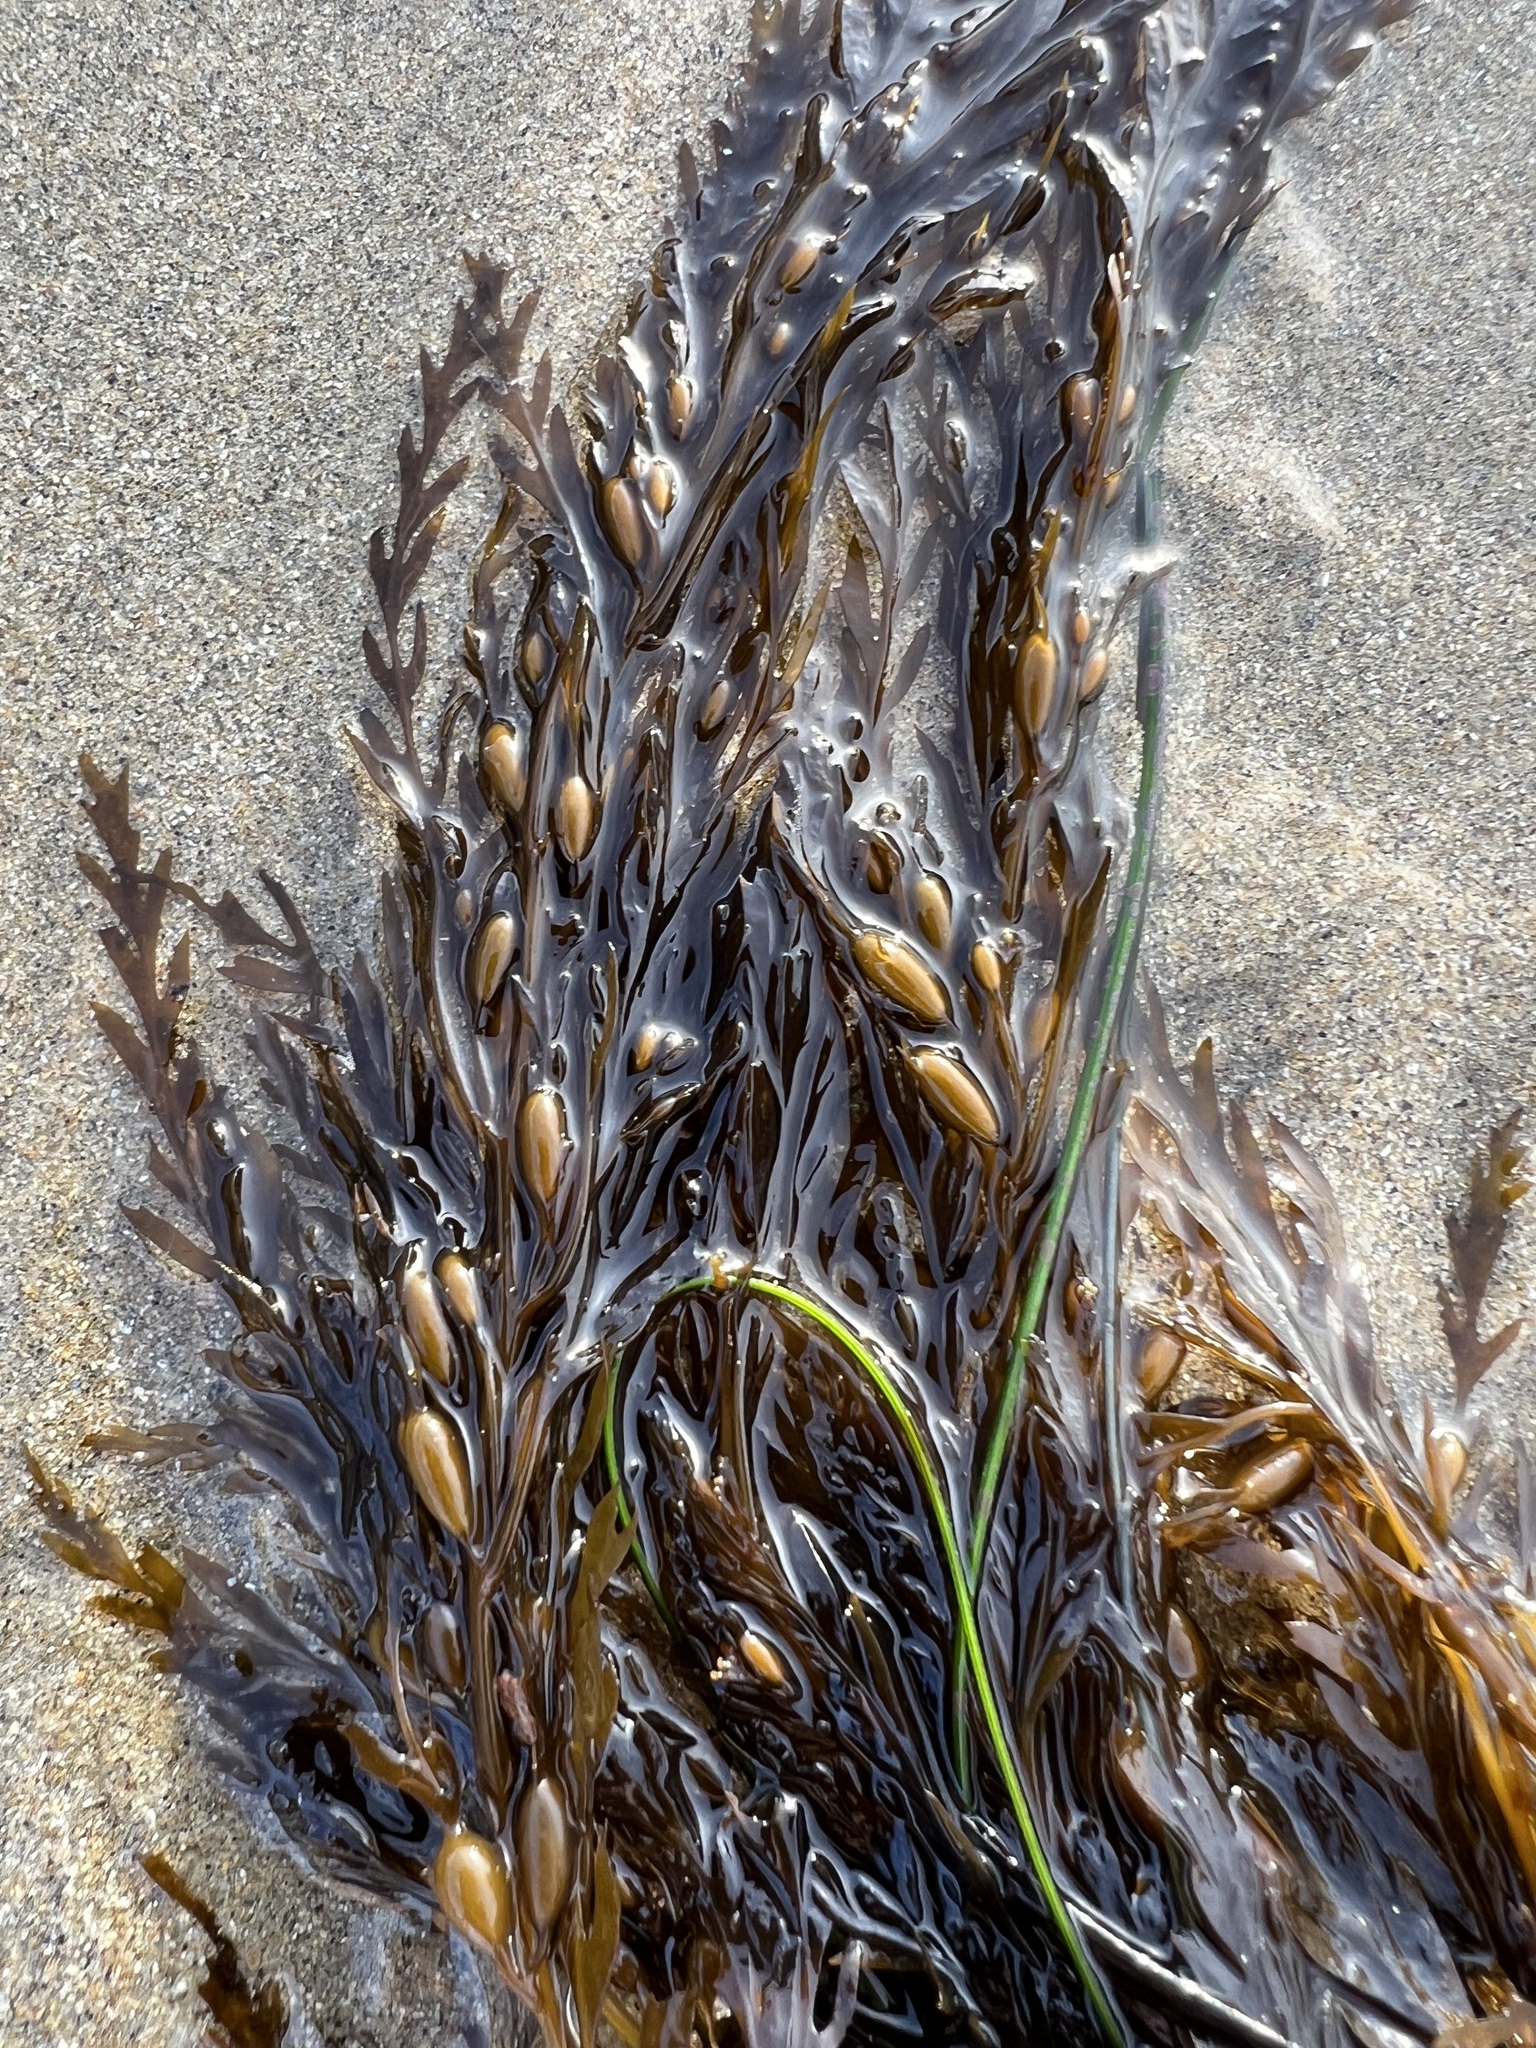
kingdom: Chromista
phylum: Ochrophyta
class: Phaeophyceae
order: Fucales
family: Sargassaceae
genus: Sargassum
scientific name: Sargassum horneri
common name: Devil weed
